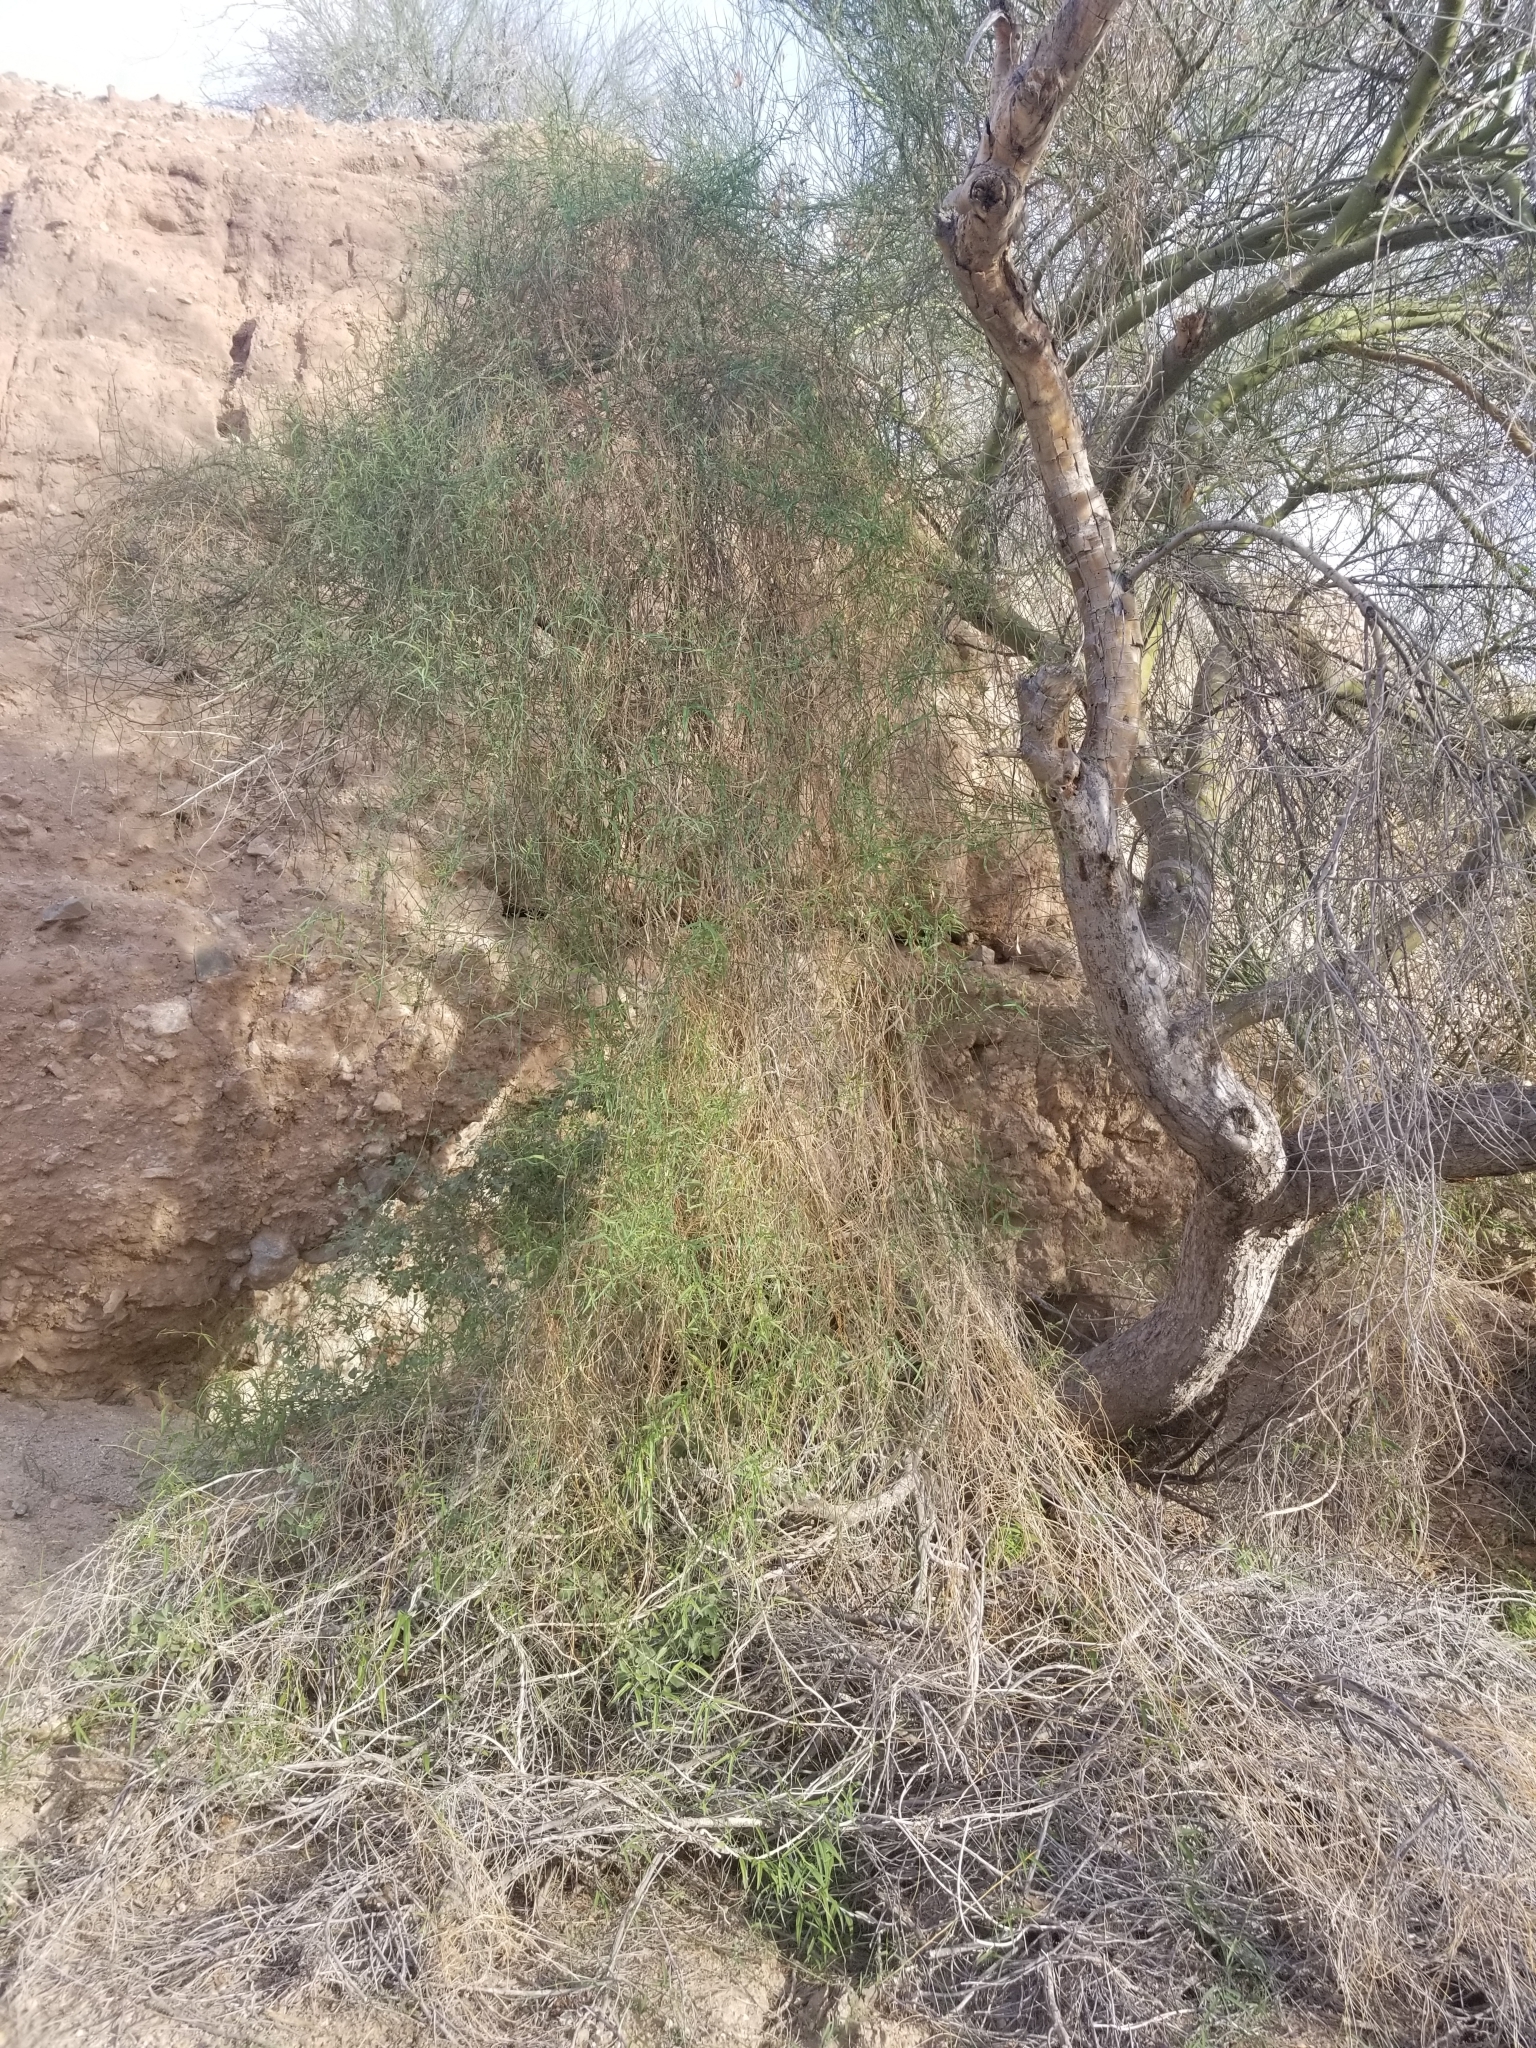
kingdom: Plantae
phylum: Tracheophyta
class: Magnoliopsida
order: Gentianales
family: Apocynaceae
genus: Funastrum
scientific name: Funastrum heterophyllum
